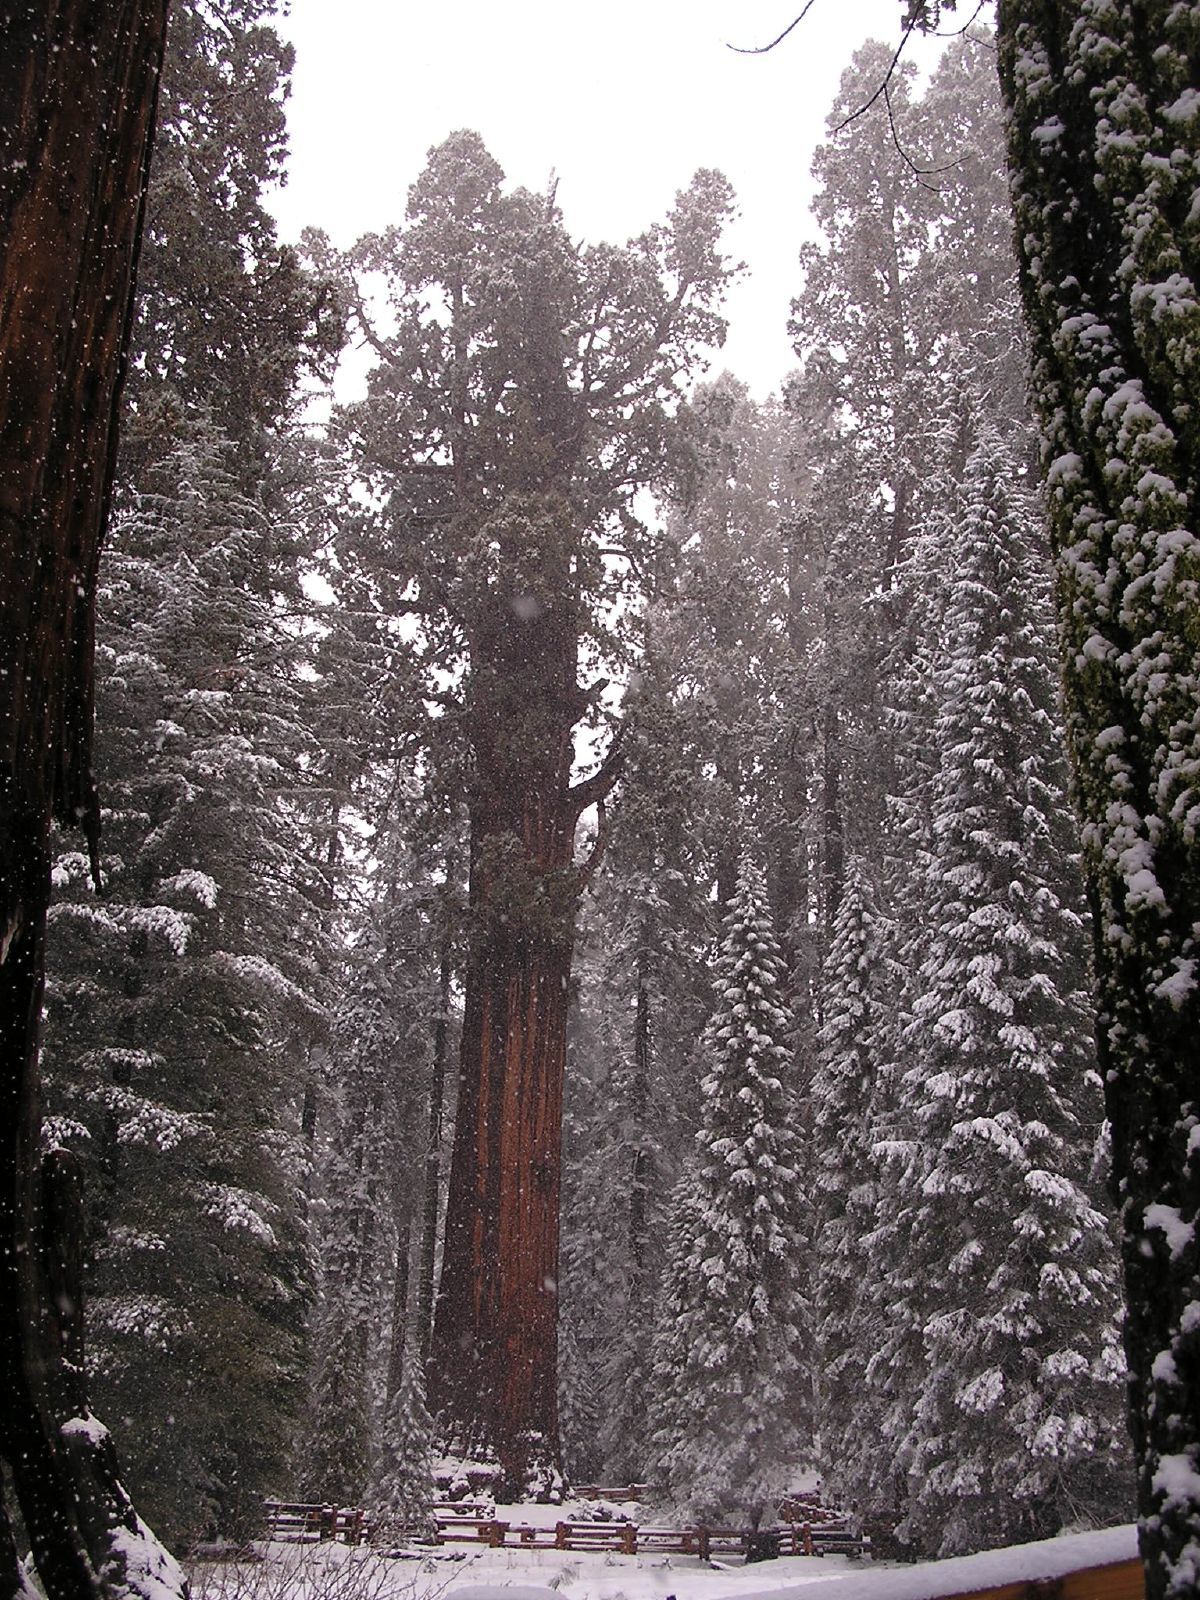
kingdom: Plantae
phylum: Tracheophyta
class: Pinopsida
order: Pinales
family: Cupressaceae
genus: Sequoiadendron
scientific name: Sequoiadendron giganteum
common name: Wellingtonia
